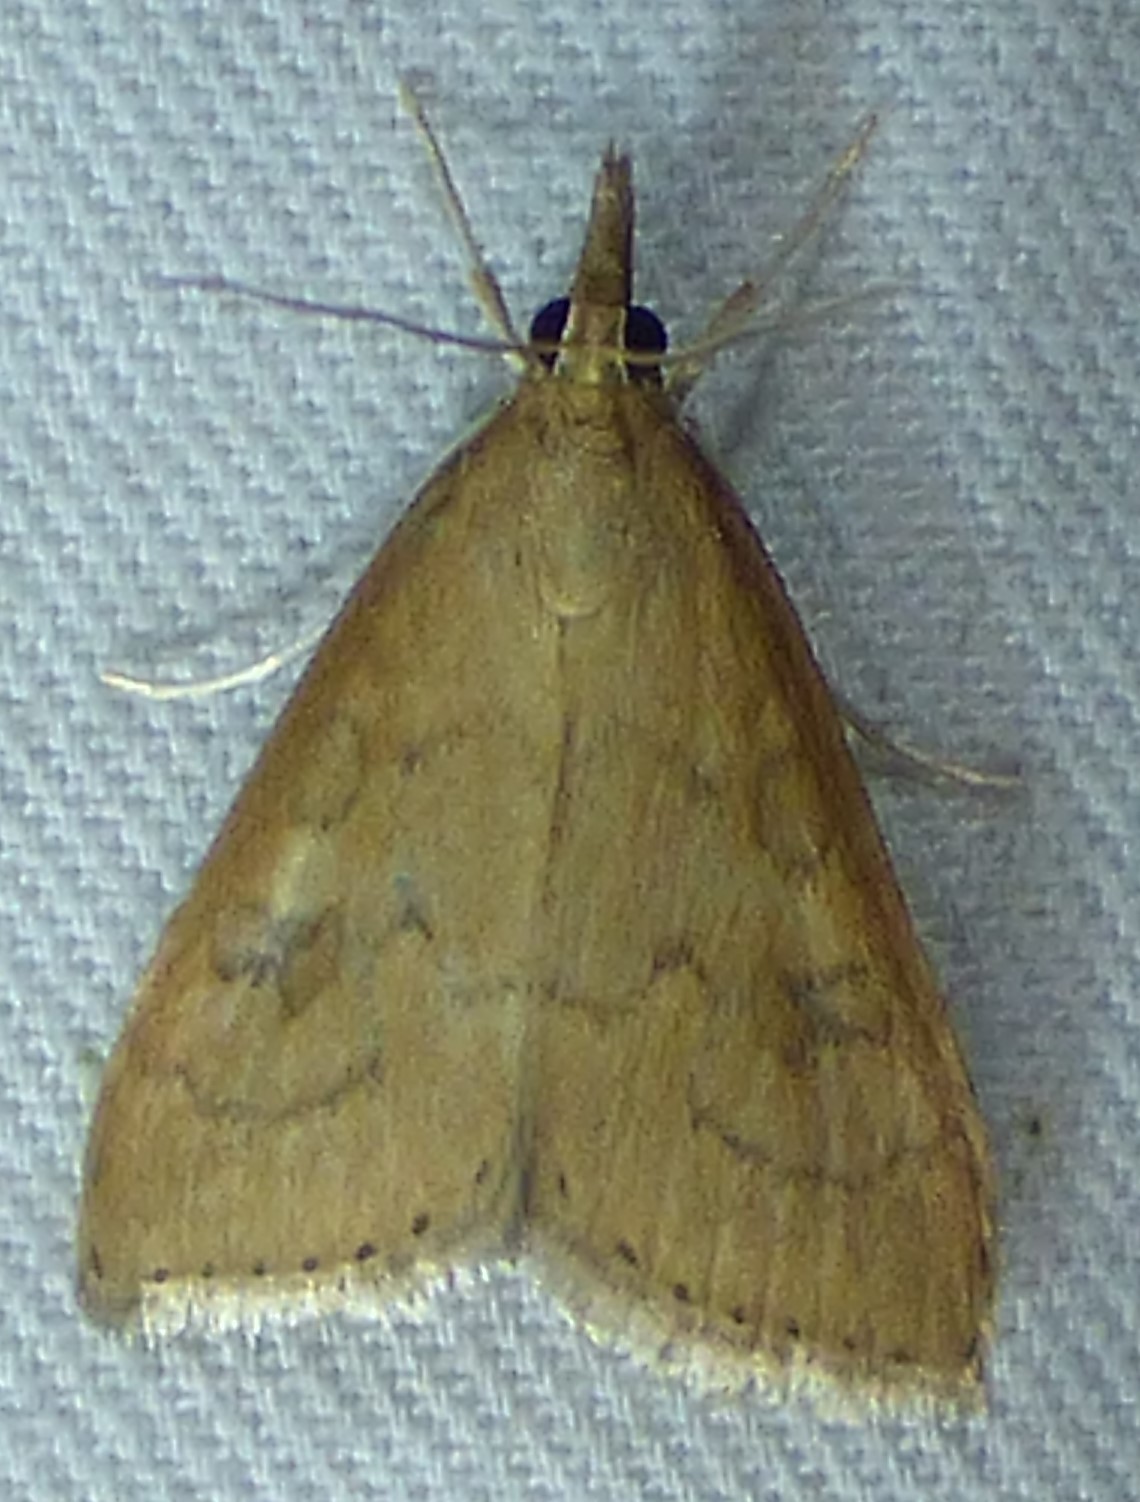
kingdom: Animalia
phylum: Arthropoda
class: Insecta
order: Lepidoptera
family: Crambidae
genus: Udea
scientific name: Udea rubigalis
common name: Celery leaftier moth
